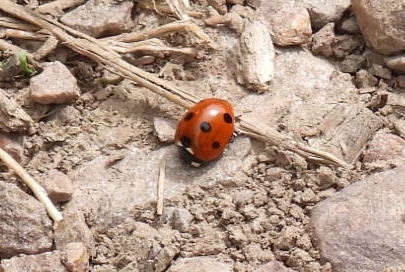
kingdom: Animalia
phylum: Arthropoda
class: Insecta
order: Coleoptera
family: Coccinellidae
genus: Coccinella
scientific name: Coccinella septempunctata
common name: Sevenspotted lady beetle
